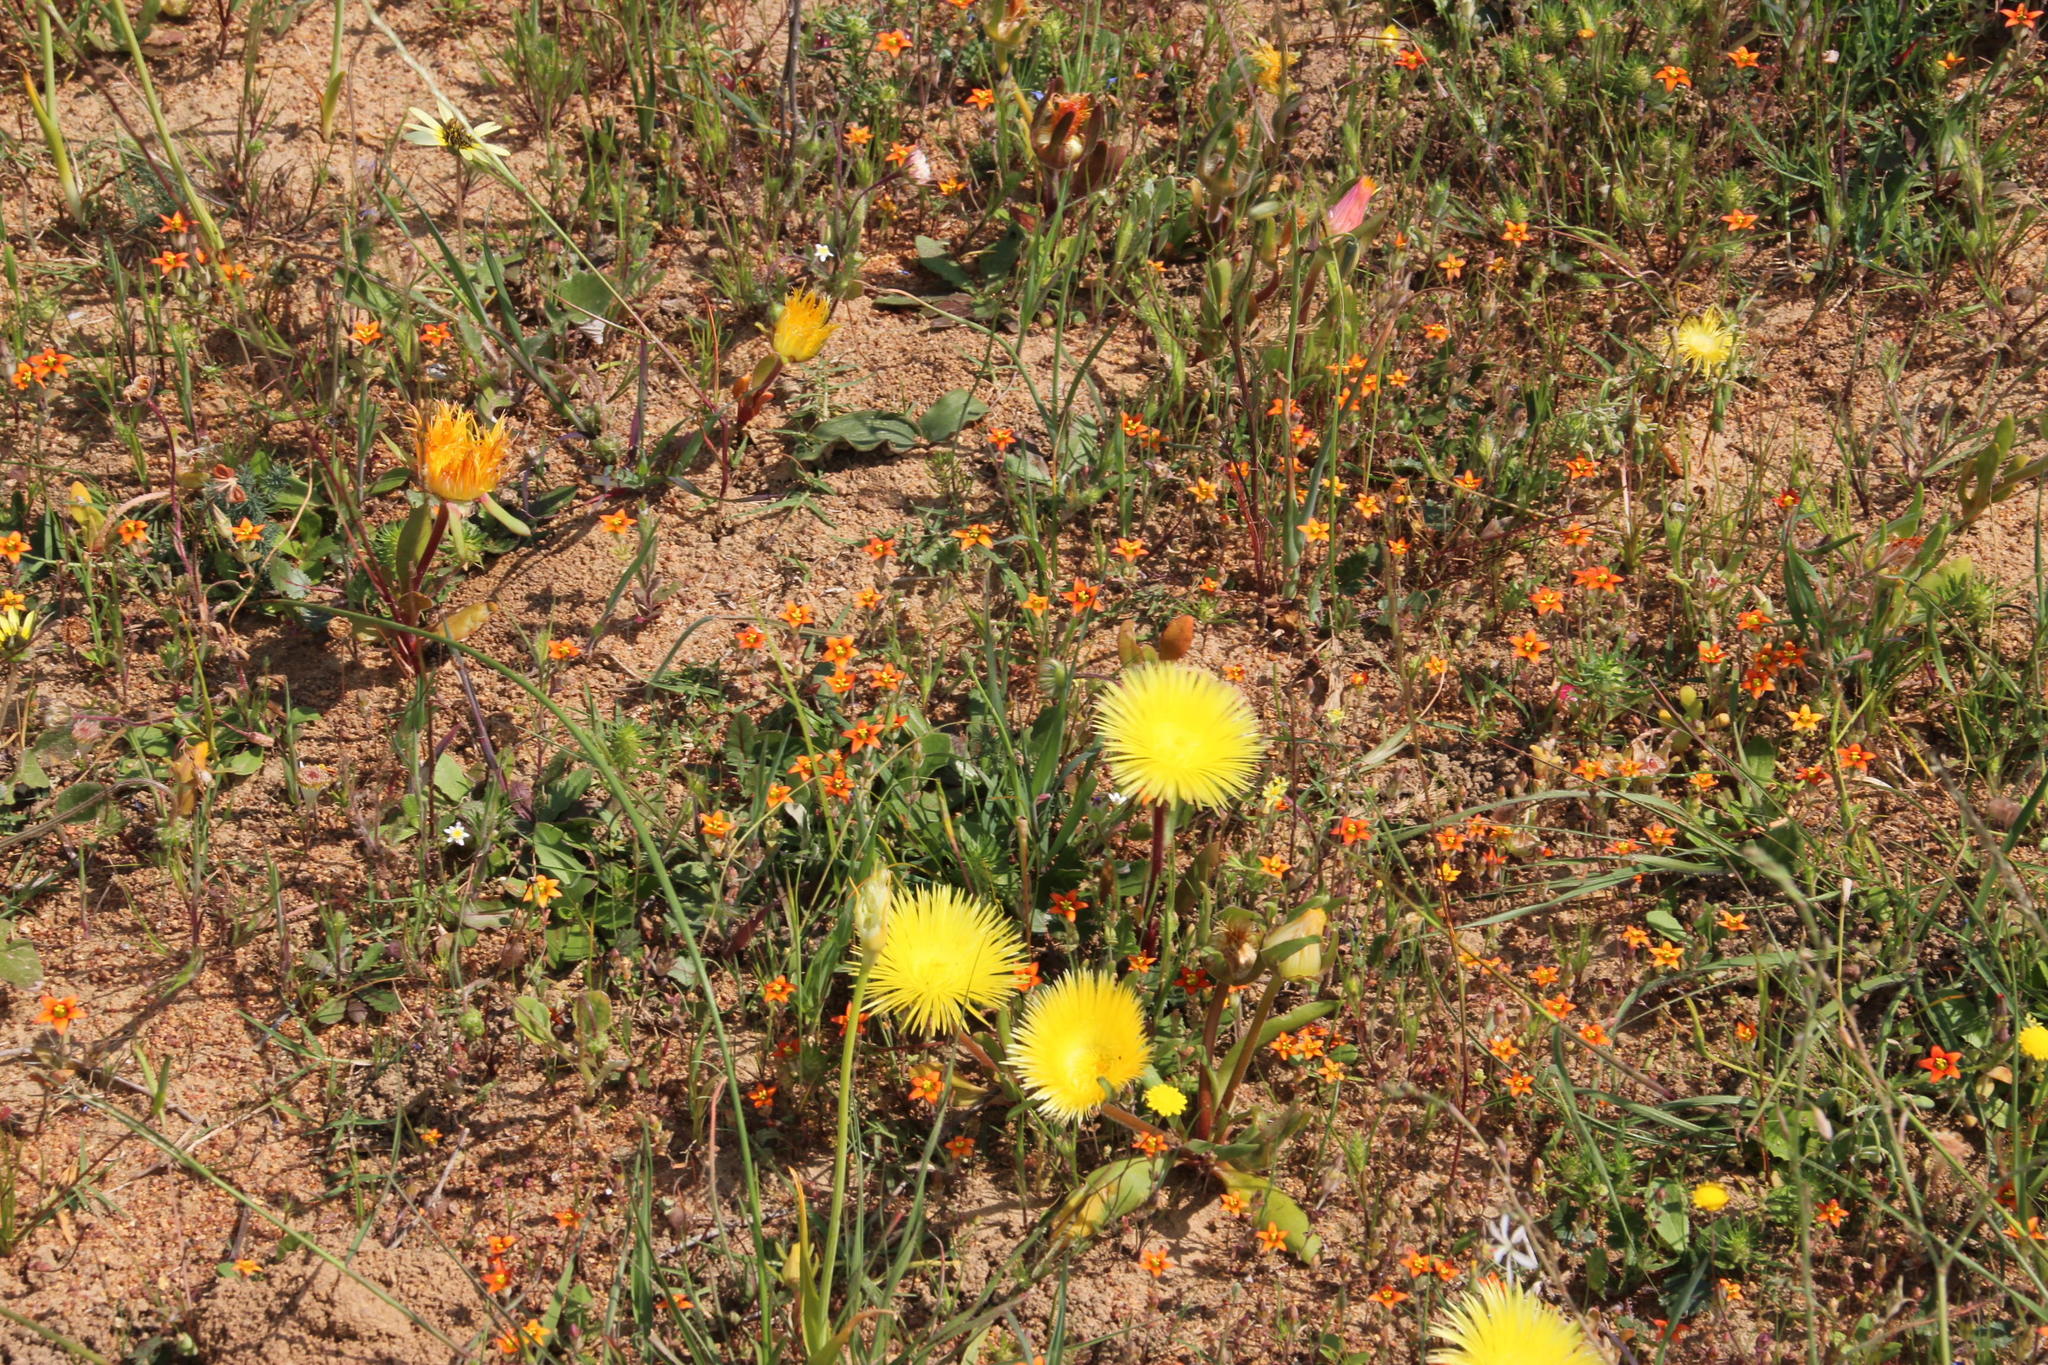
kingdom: Plantae
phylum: Tracheophyta
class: Magnoliopsida
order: Saxifragales
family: Crassulaceae
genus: Crassula
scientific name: Crassula dichotoma
